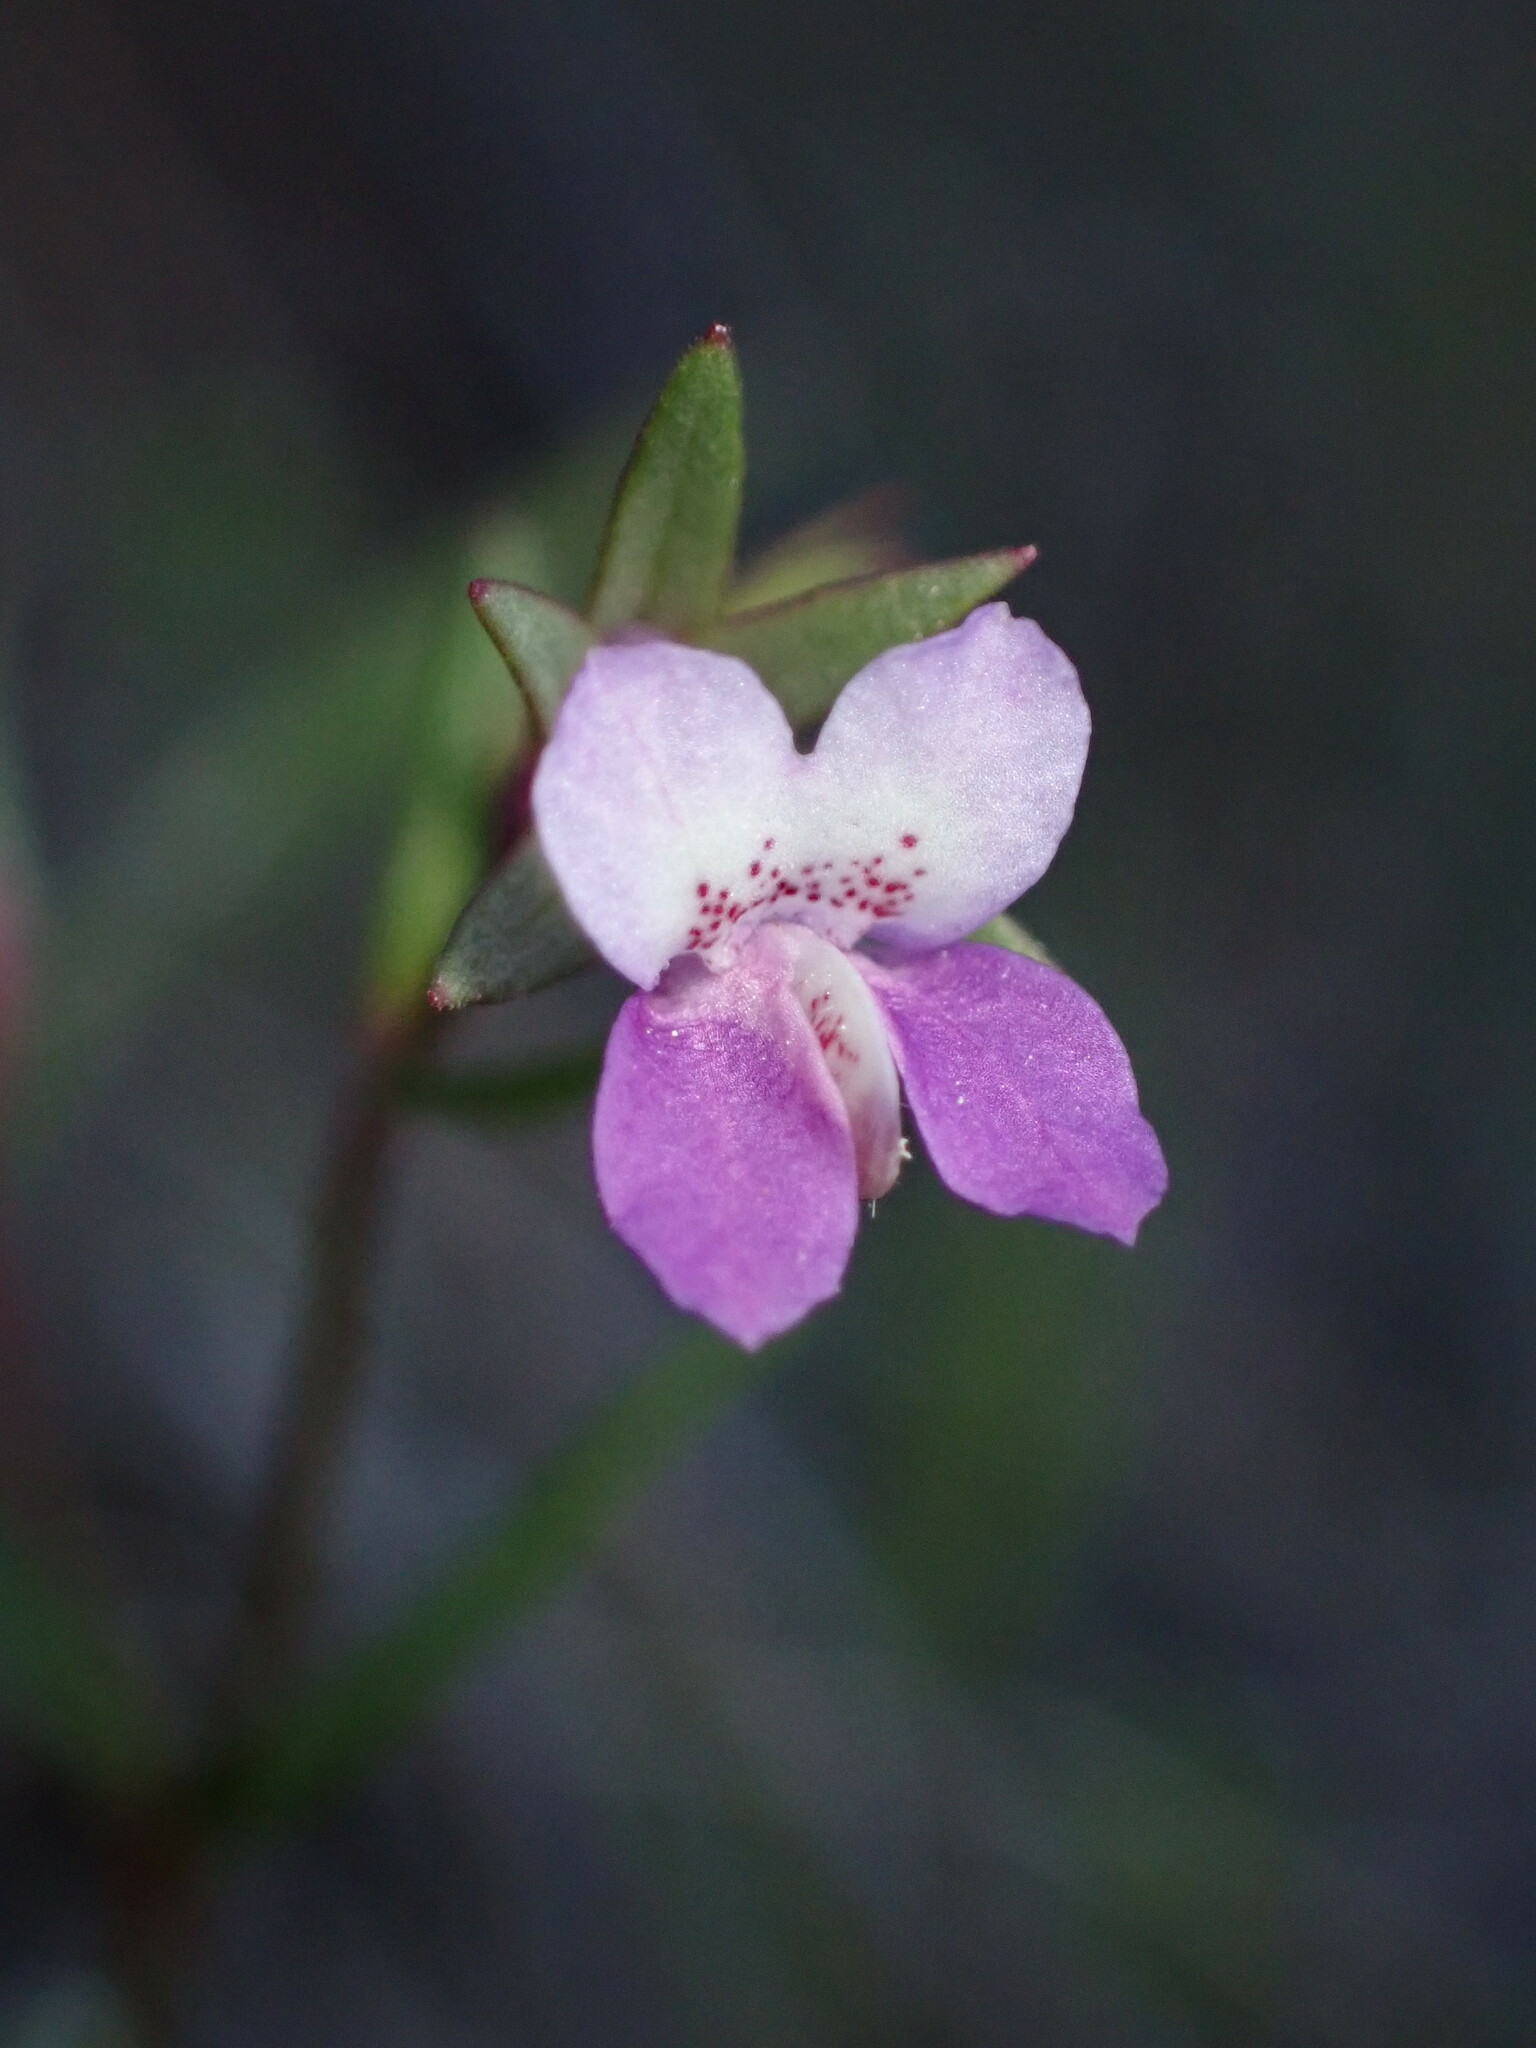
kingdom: Plantae
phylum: Tracheophyta
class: Magnoliopsida
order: Lamiales
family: Plantaginaceae
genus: Collinsia
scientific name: Collinsia sparsiflora
